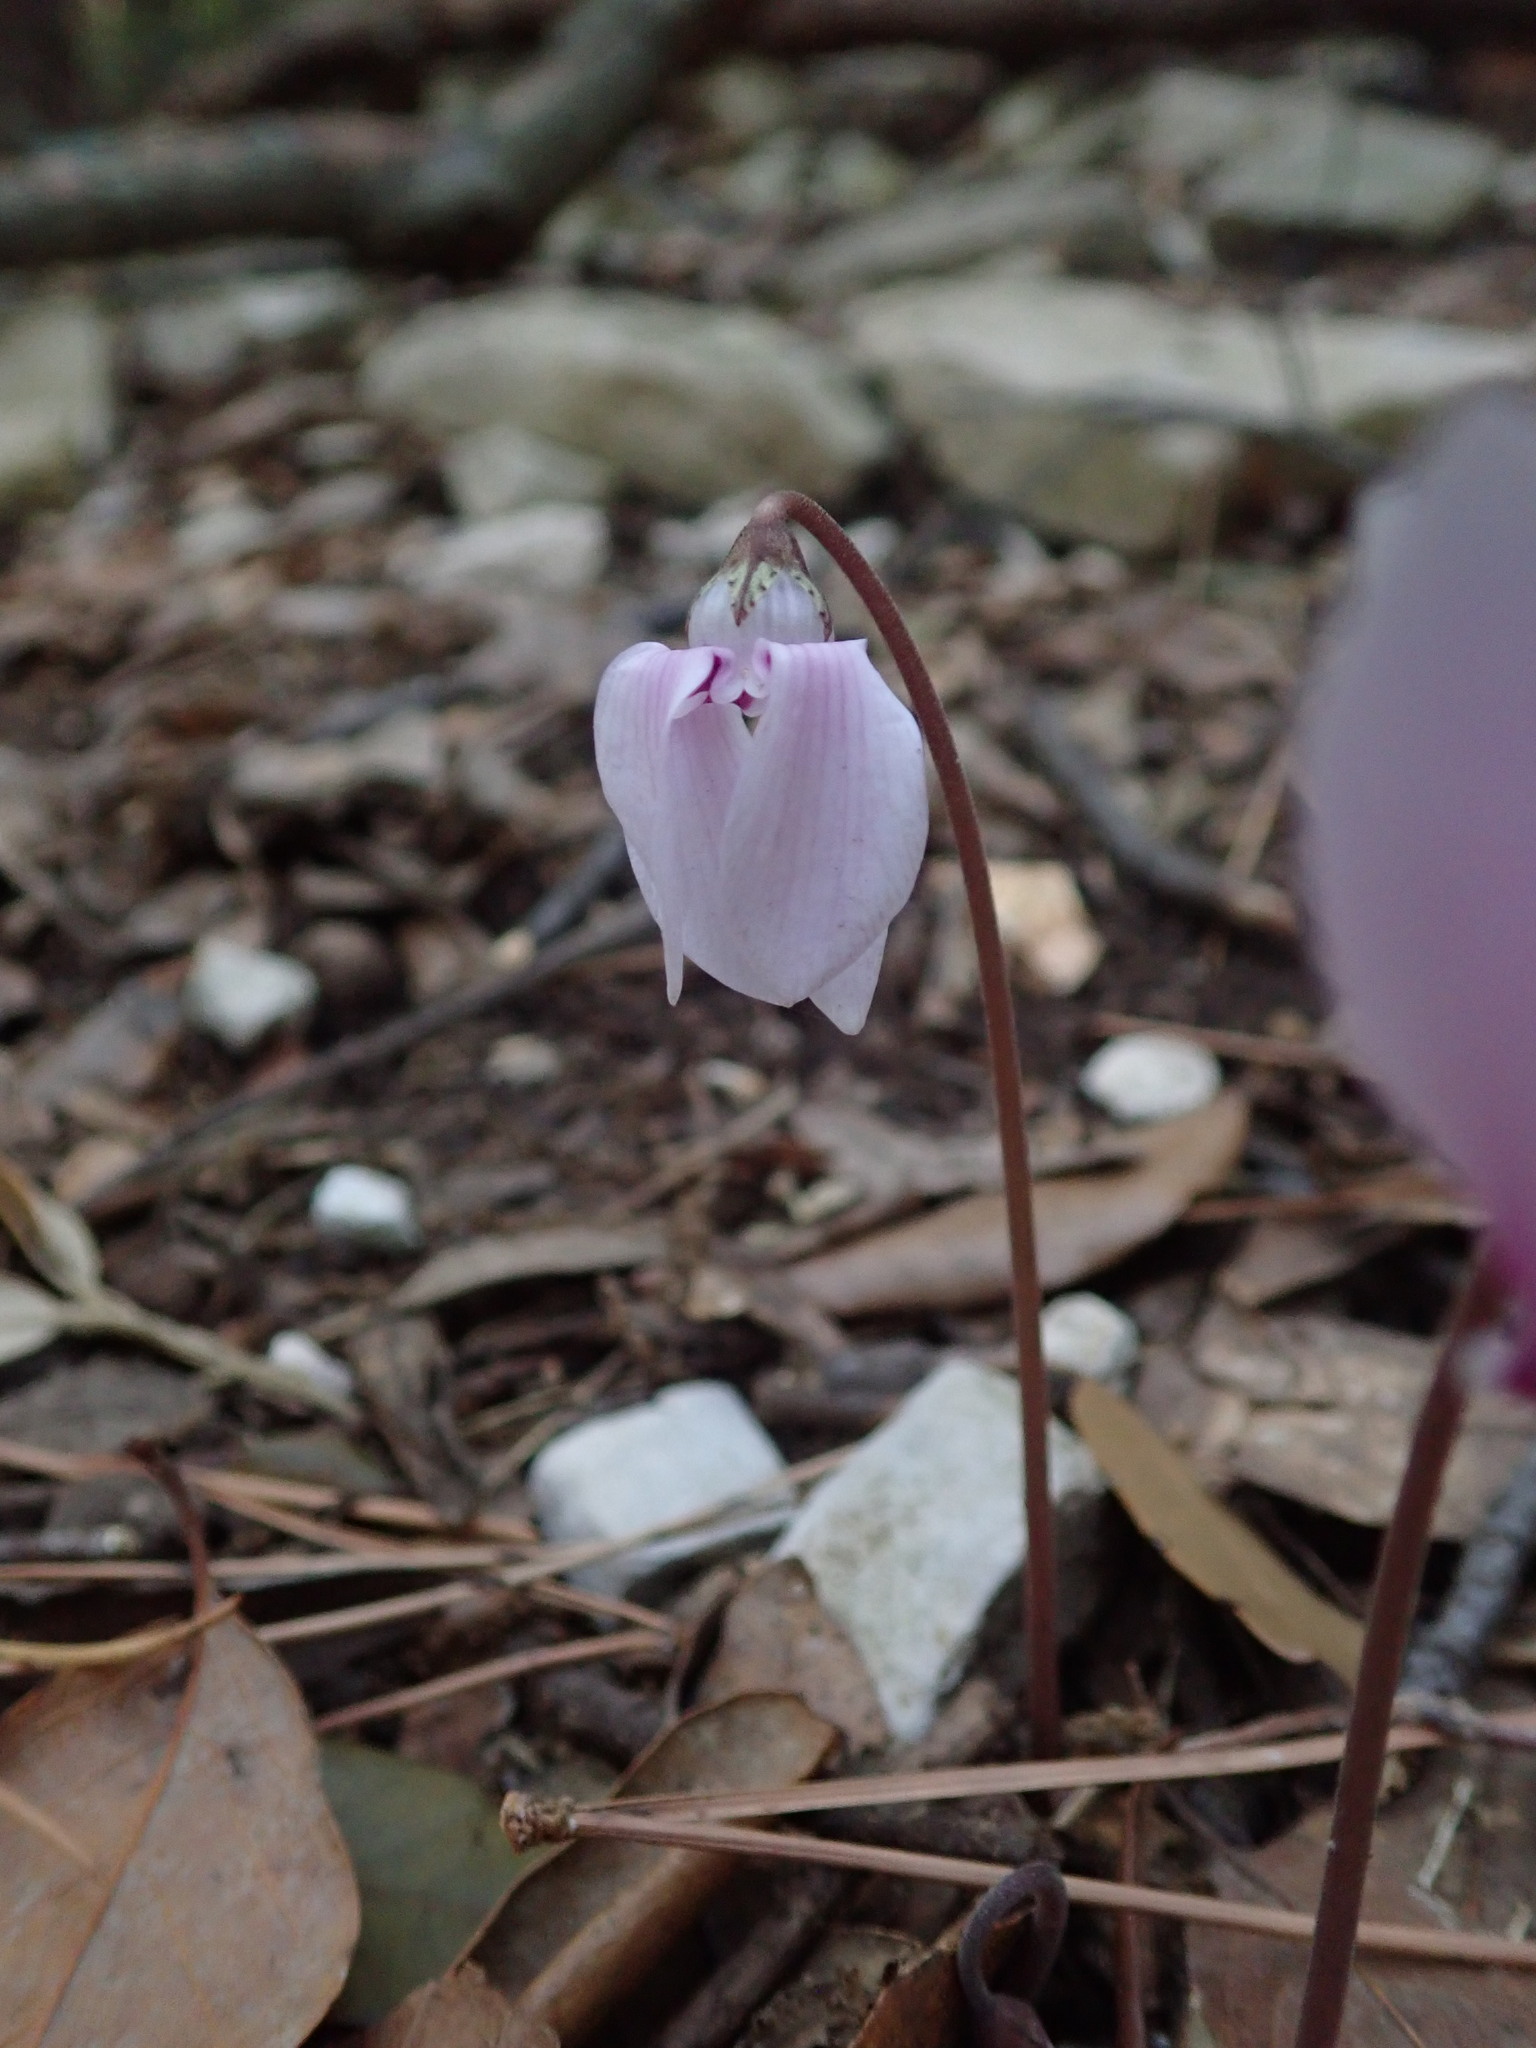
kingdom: Plantae
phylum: Tracheophyta
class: Magnoliopsida
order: Ericales
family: Primulaceae
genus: Cyclamen
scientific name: Cyclamen hederifolium
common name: Sowbread
